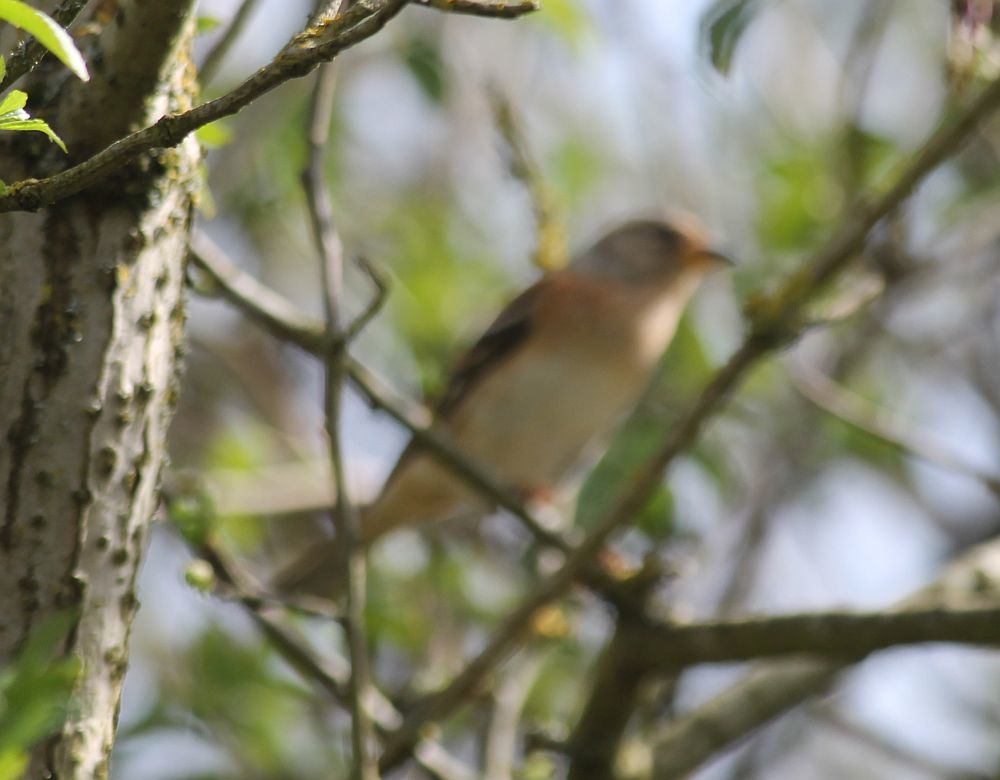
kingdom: Animalia
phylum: Chordata
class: Aves
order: Passeriformes
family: Fringillidae
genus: Fringilla
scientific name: Fringilla montifringilla
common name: Brambling
